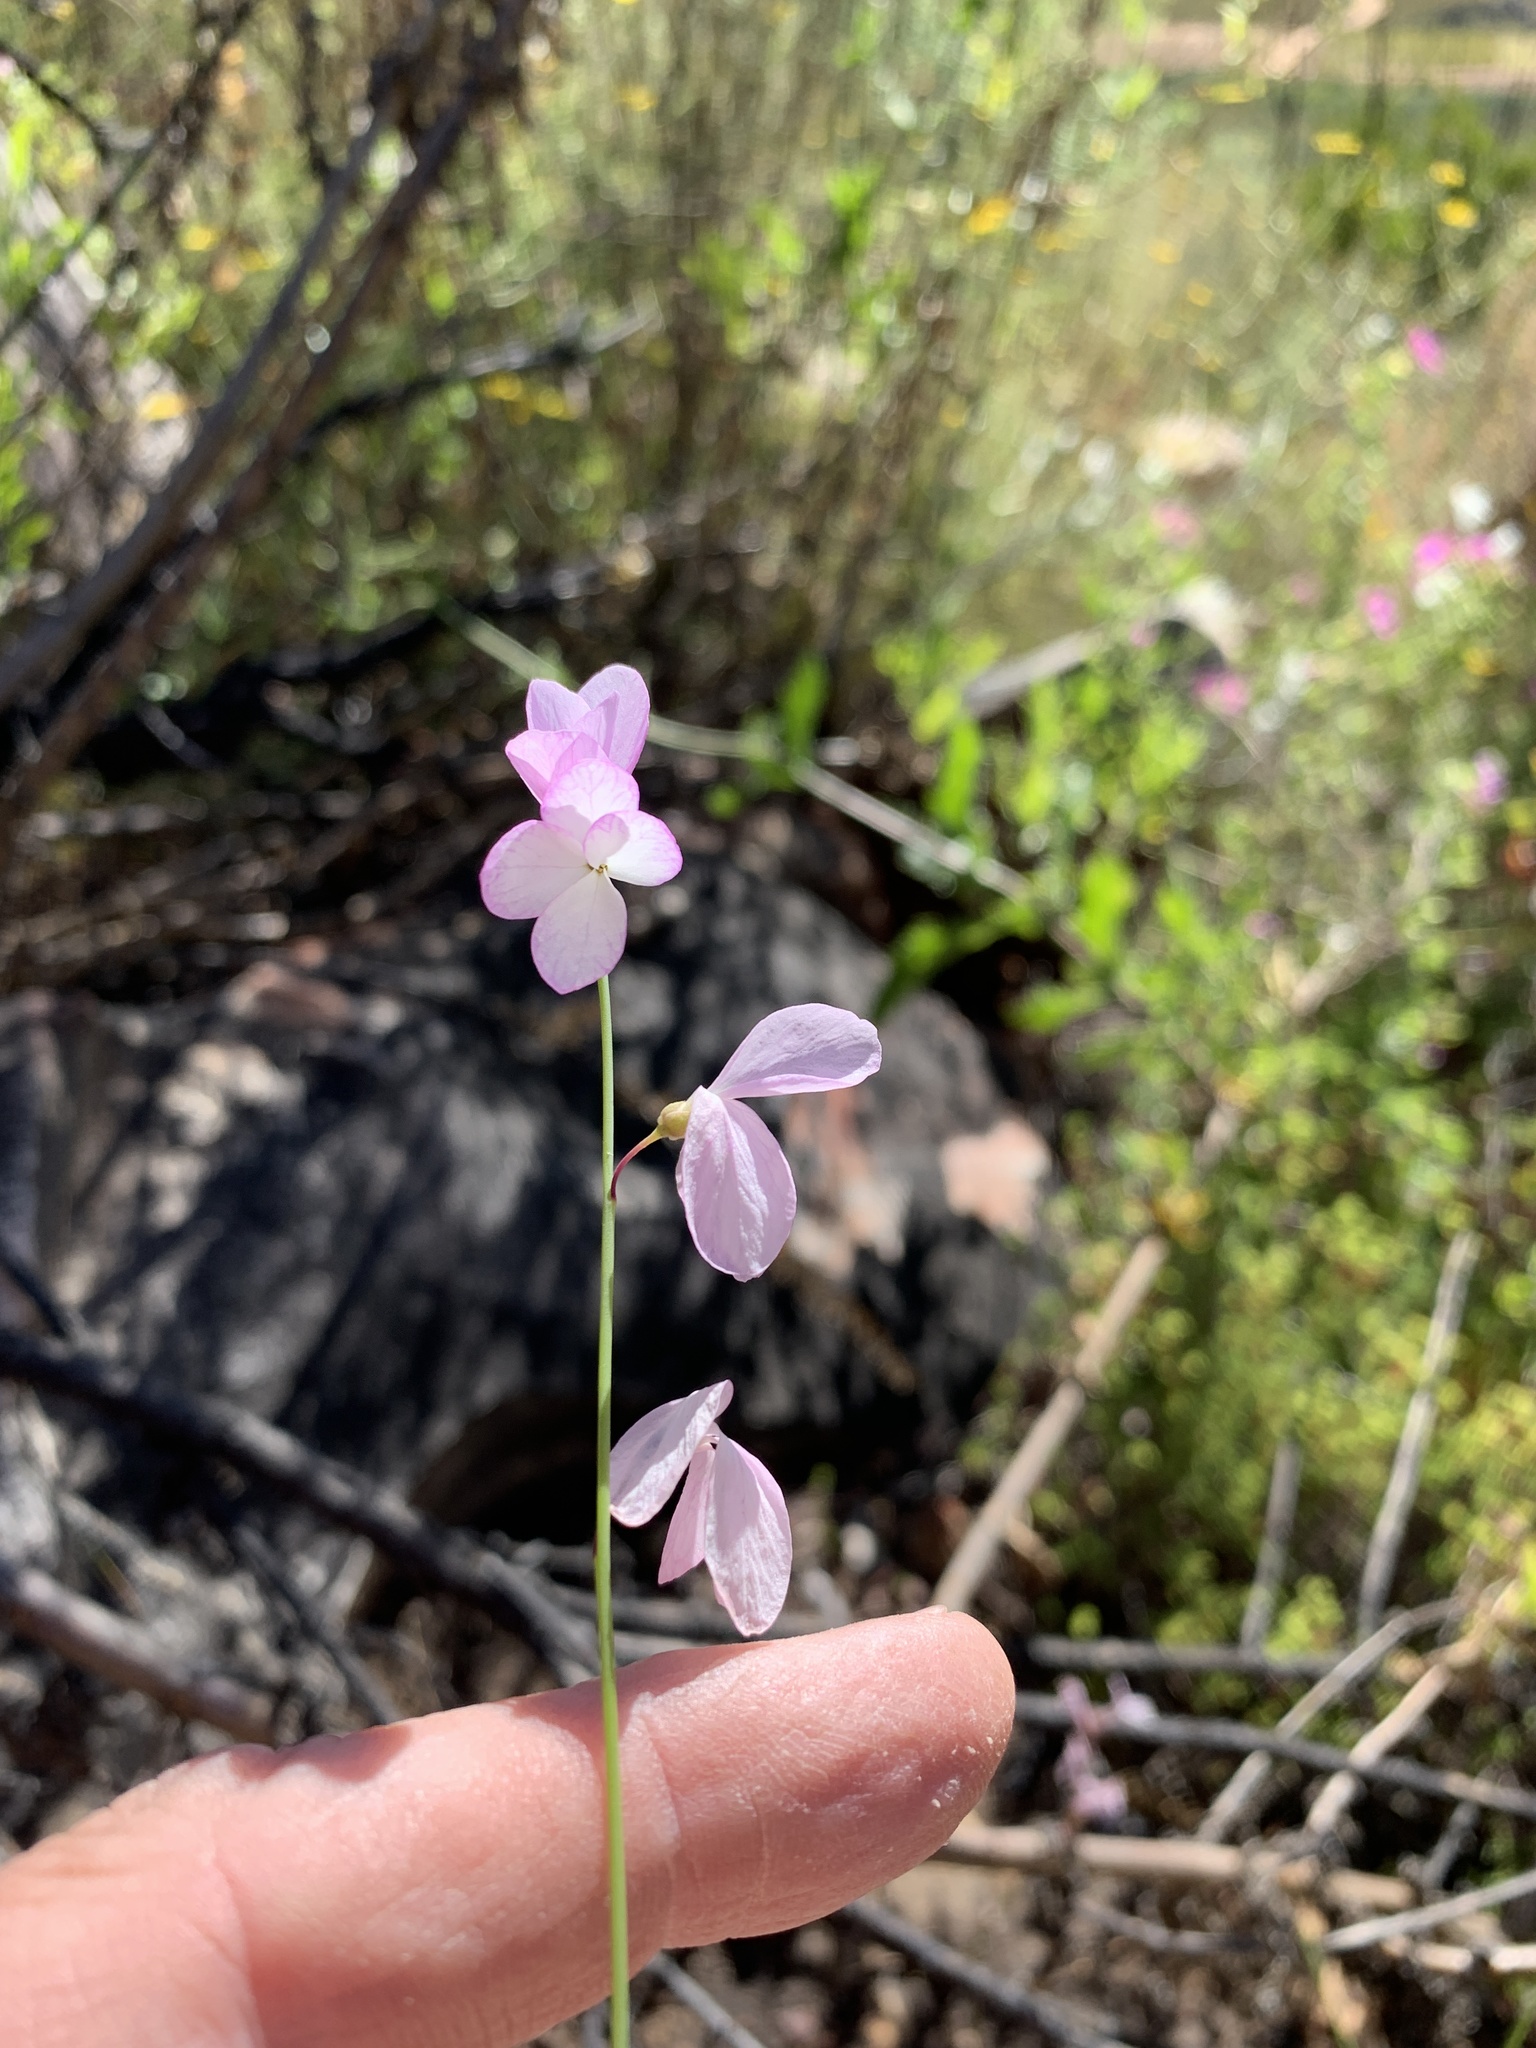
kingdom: Plantae
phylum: Tracheophyta
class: Magnoliopsida
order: Brassicales
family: Brassicaceae
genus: Heliophila
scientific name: Heliophila juncea
